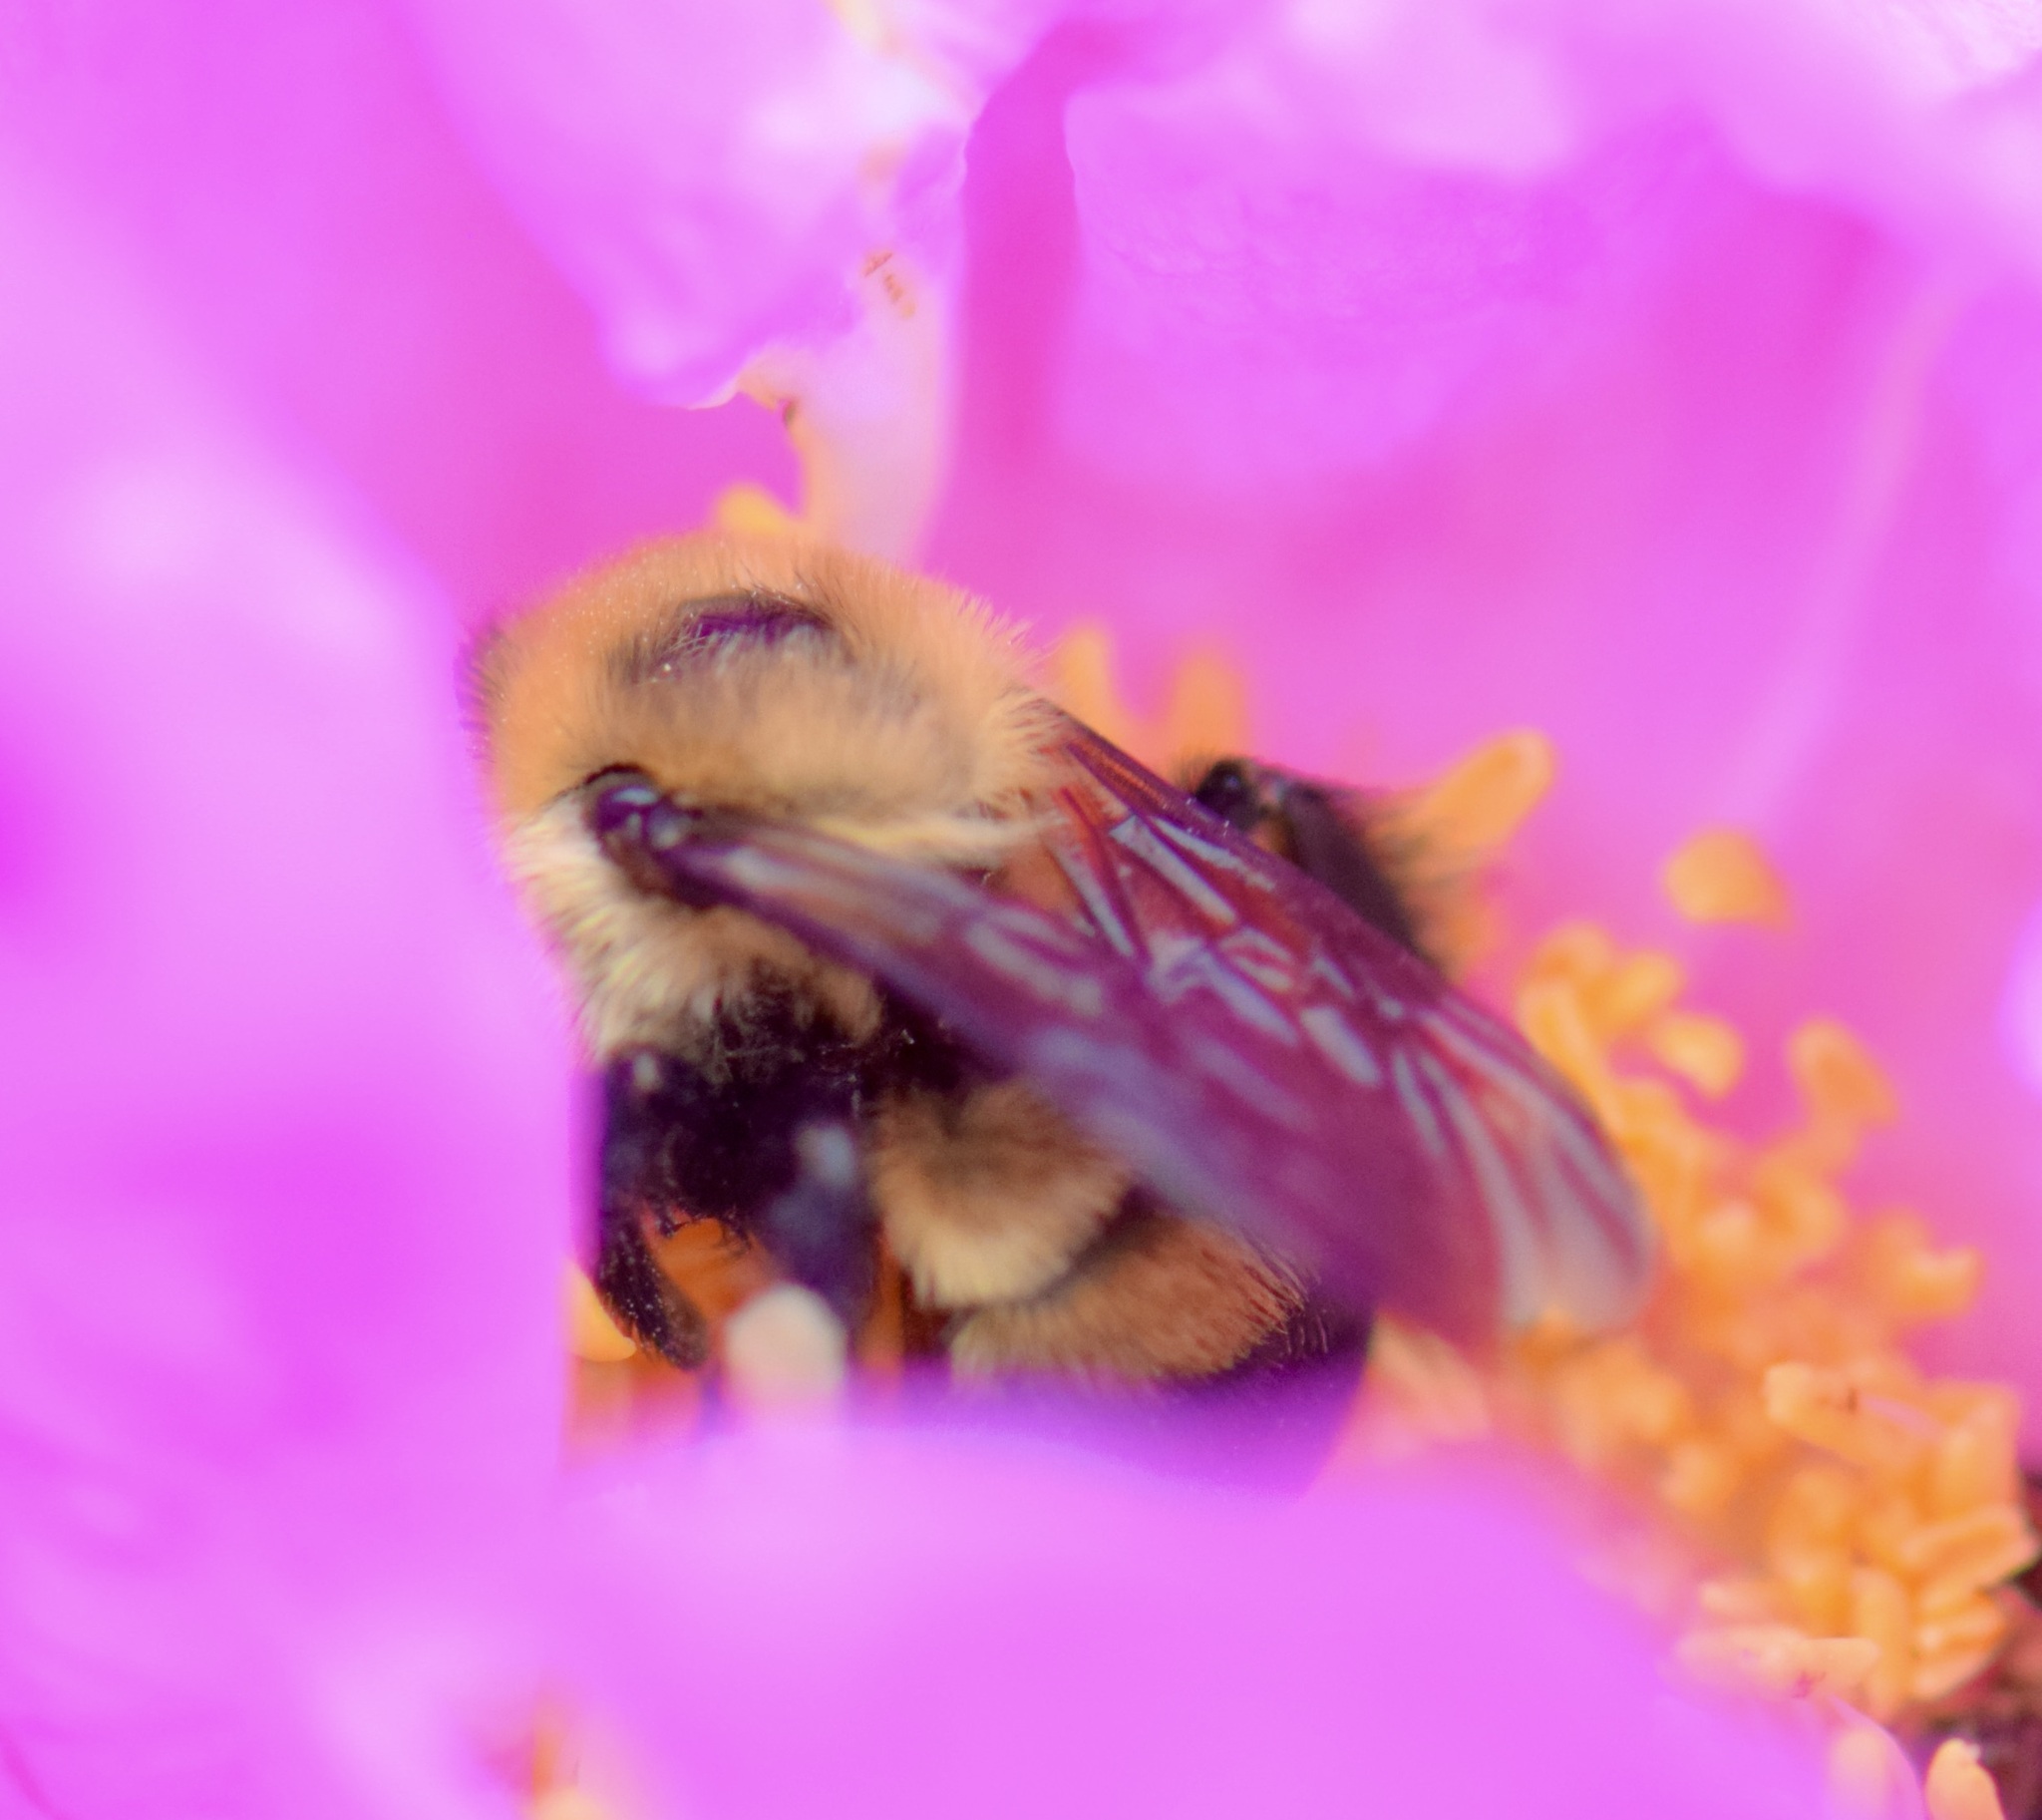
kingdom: Animalia
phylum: Arthropoda
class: Insecta
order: Hymenoptera
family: Apidae
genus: Bombus
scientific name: Bombus griseocollis
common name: Brown-belted bumble bee
